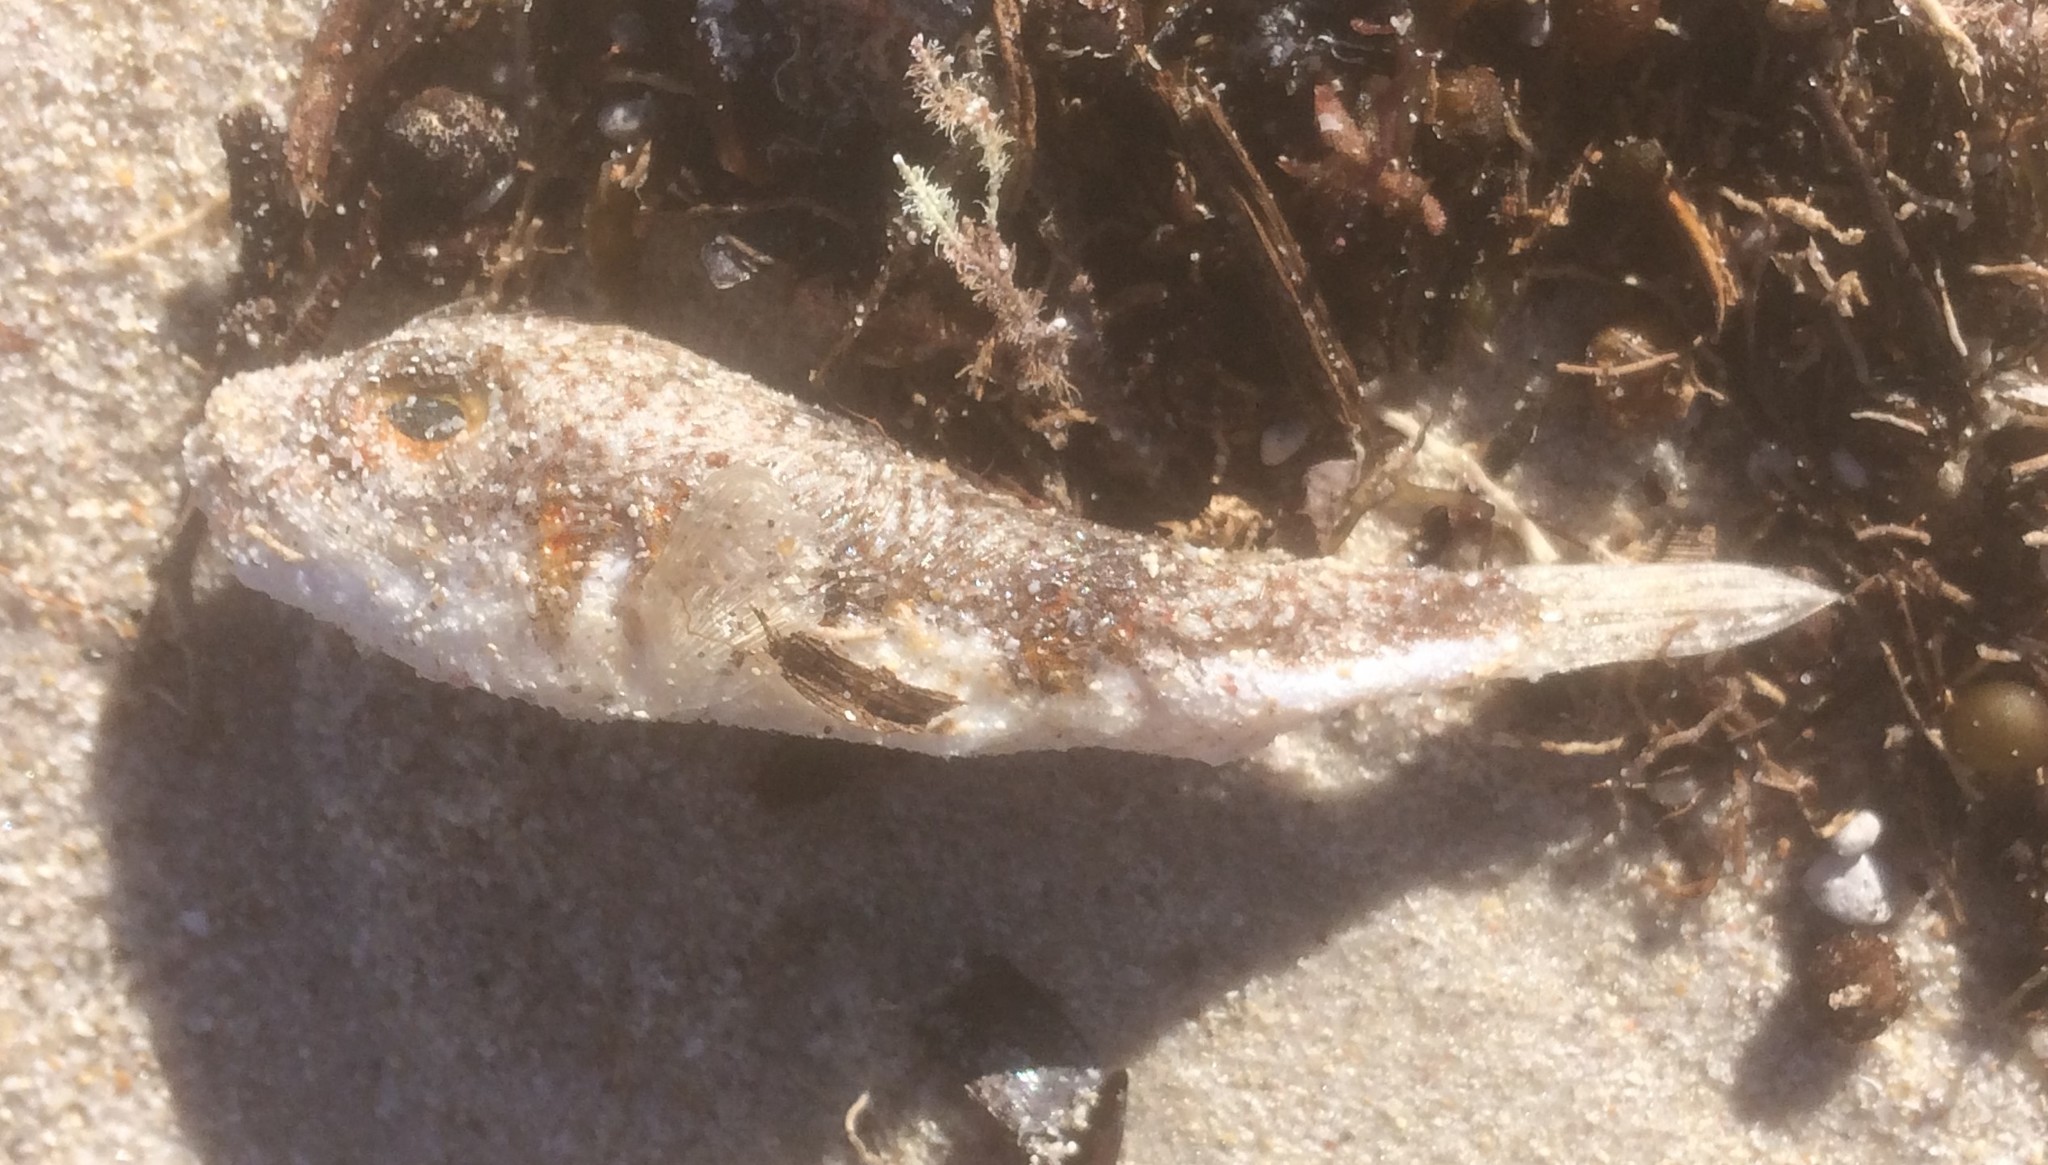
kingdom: Animalia
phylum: Chordata
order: Tetraodontiformes
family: Tetraodontidae
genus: Polyspina
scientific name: Polyspina piosae
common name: Orange-barred pufferfish
